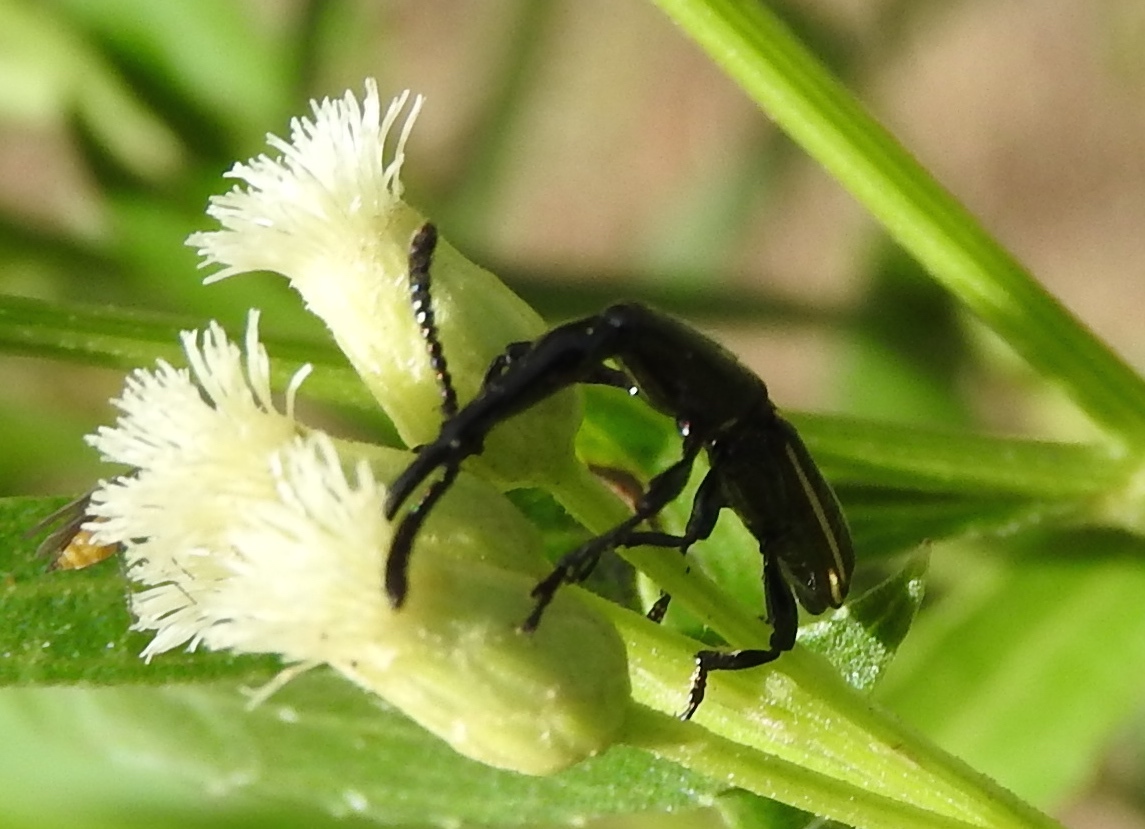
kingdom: Animalia
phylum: Arthropoda
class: Insecta
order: Coleoptera
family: Brentidae
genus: Brentus
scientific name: Brentus
